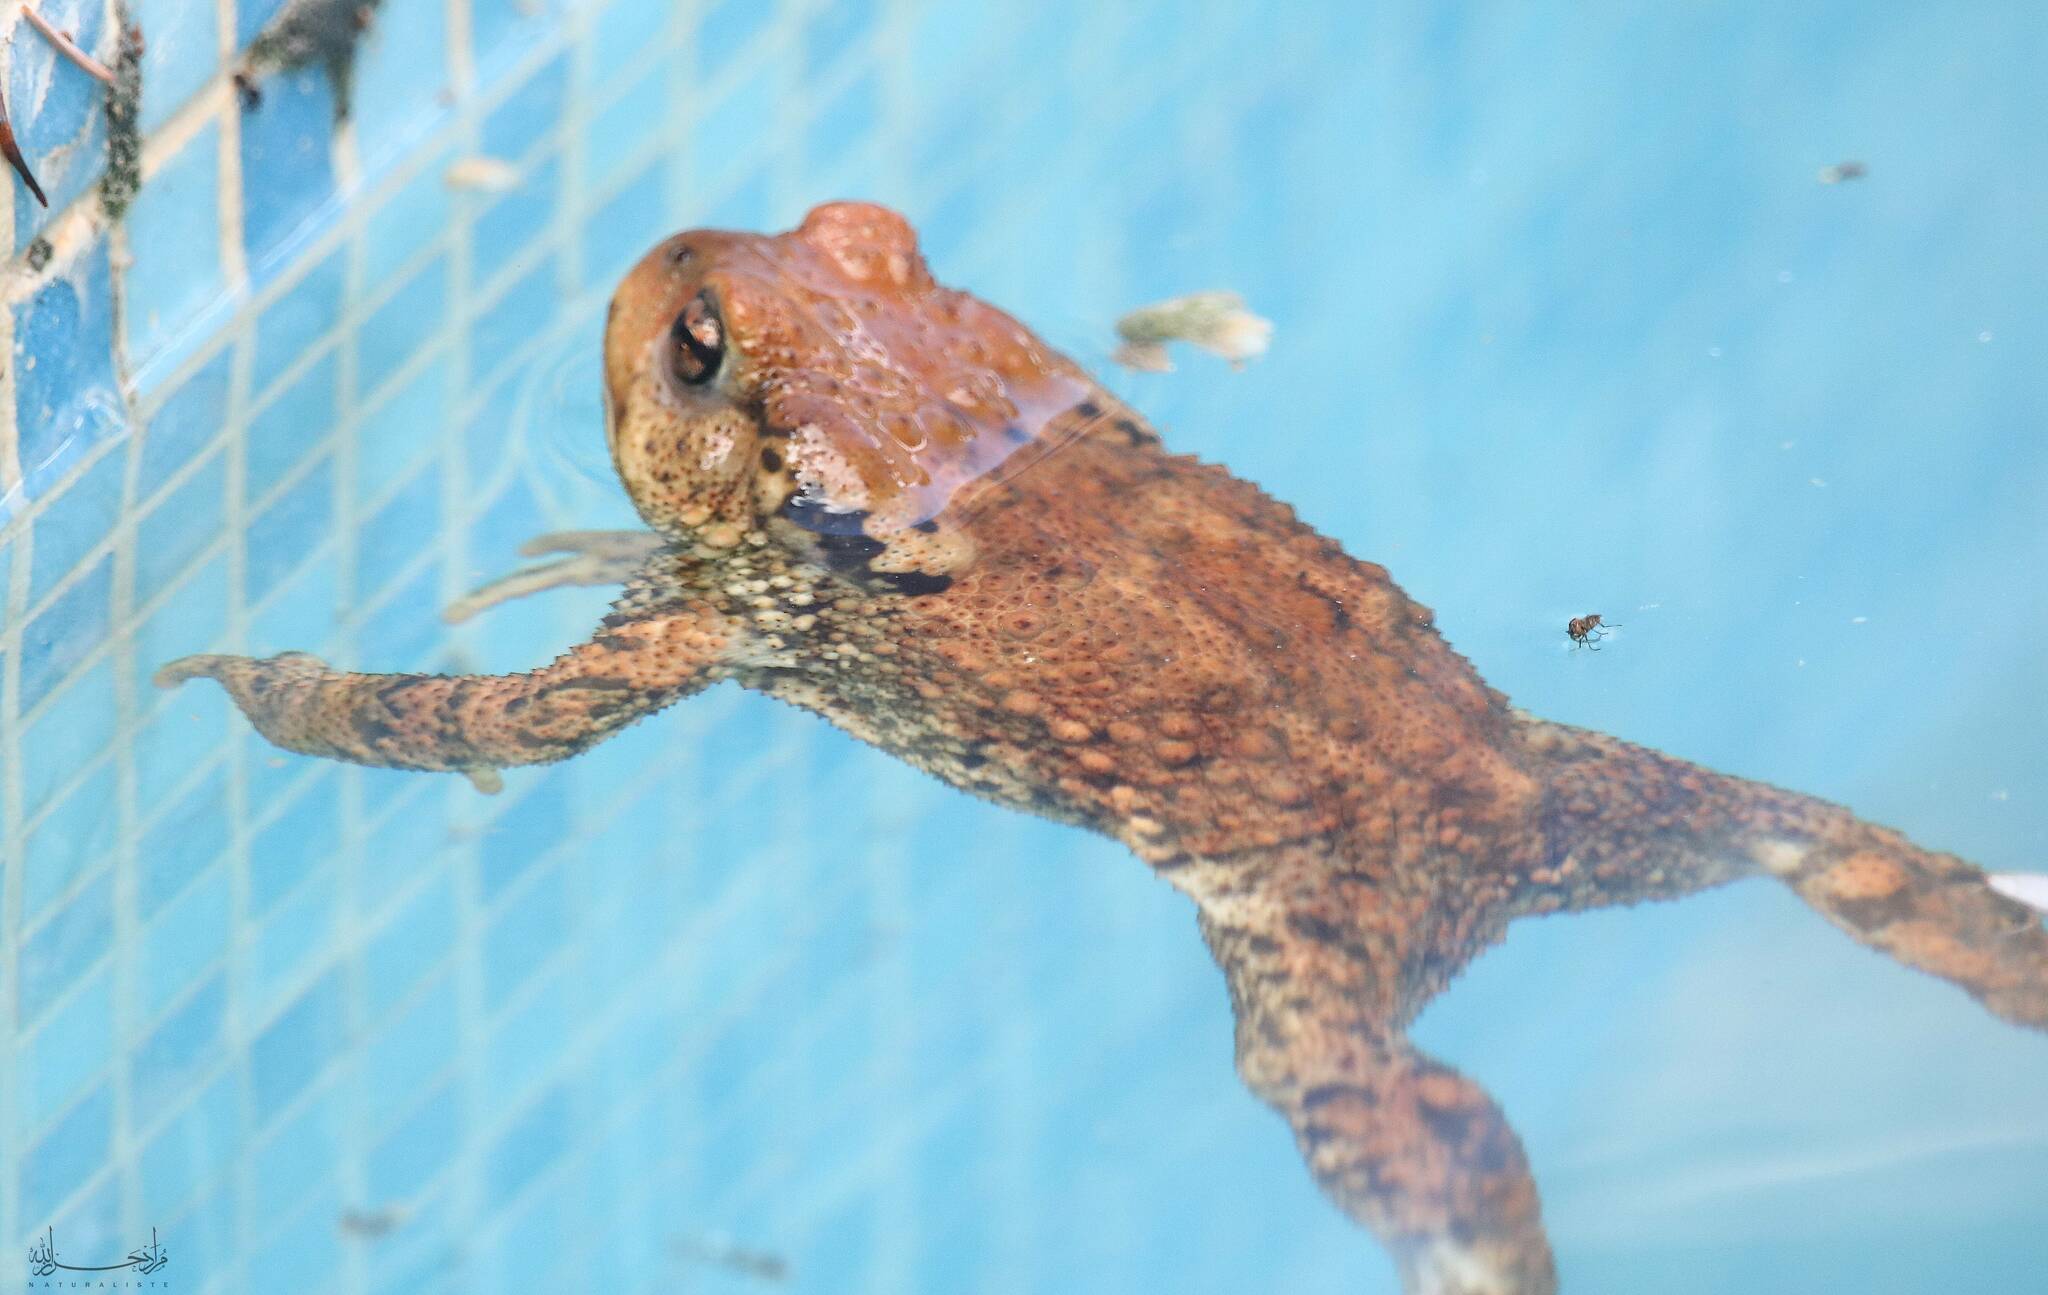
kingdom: Animalia
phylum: Chordata
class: Amphibia
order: Anura
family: Bufonidae
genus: Bufo
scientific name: Bufo spinosus
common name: Western common toad
